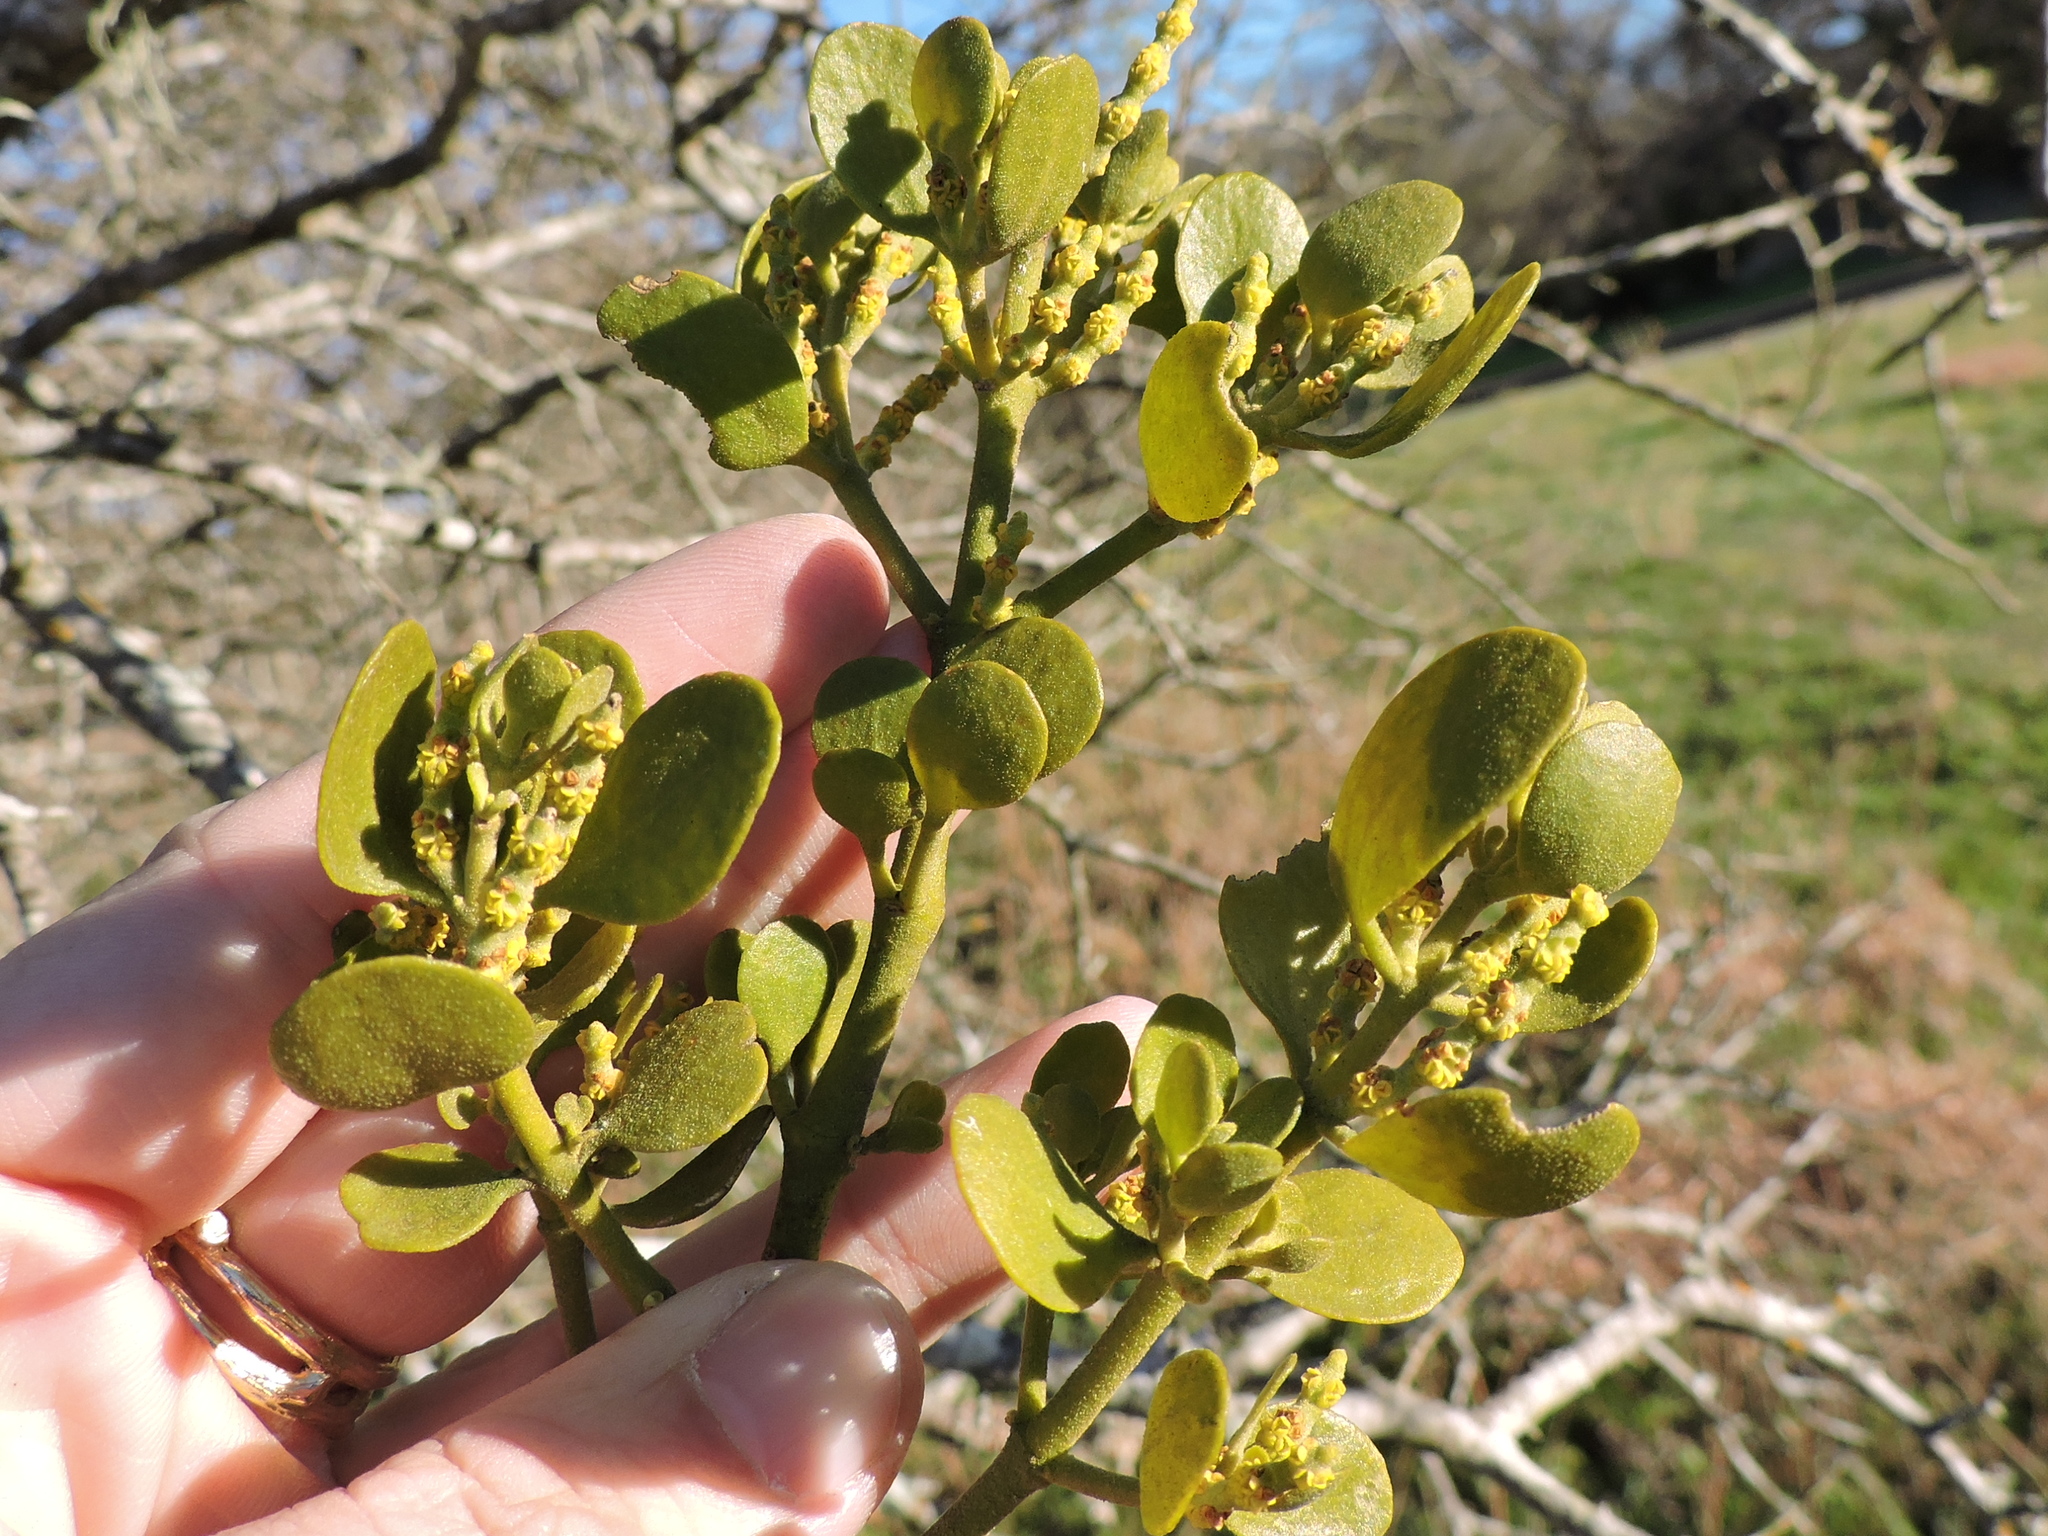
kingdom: Plantae
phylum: Tracheophyta
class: Magnoliopsida
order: Santalales
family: Viscaceae
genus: Phoradendron
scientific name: Phoradendron leucarpum
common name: Pacific mistletoe
